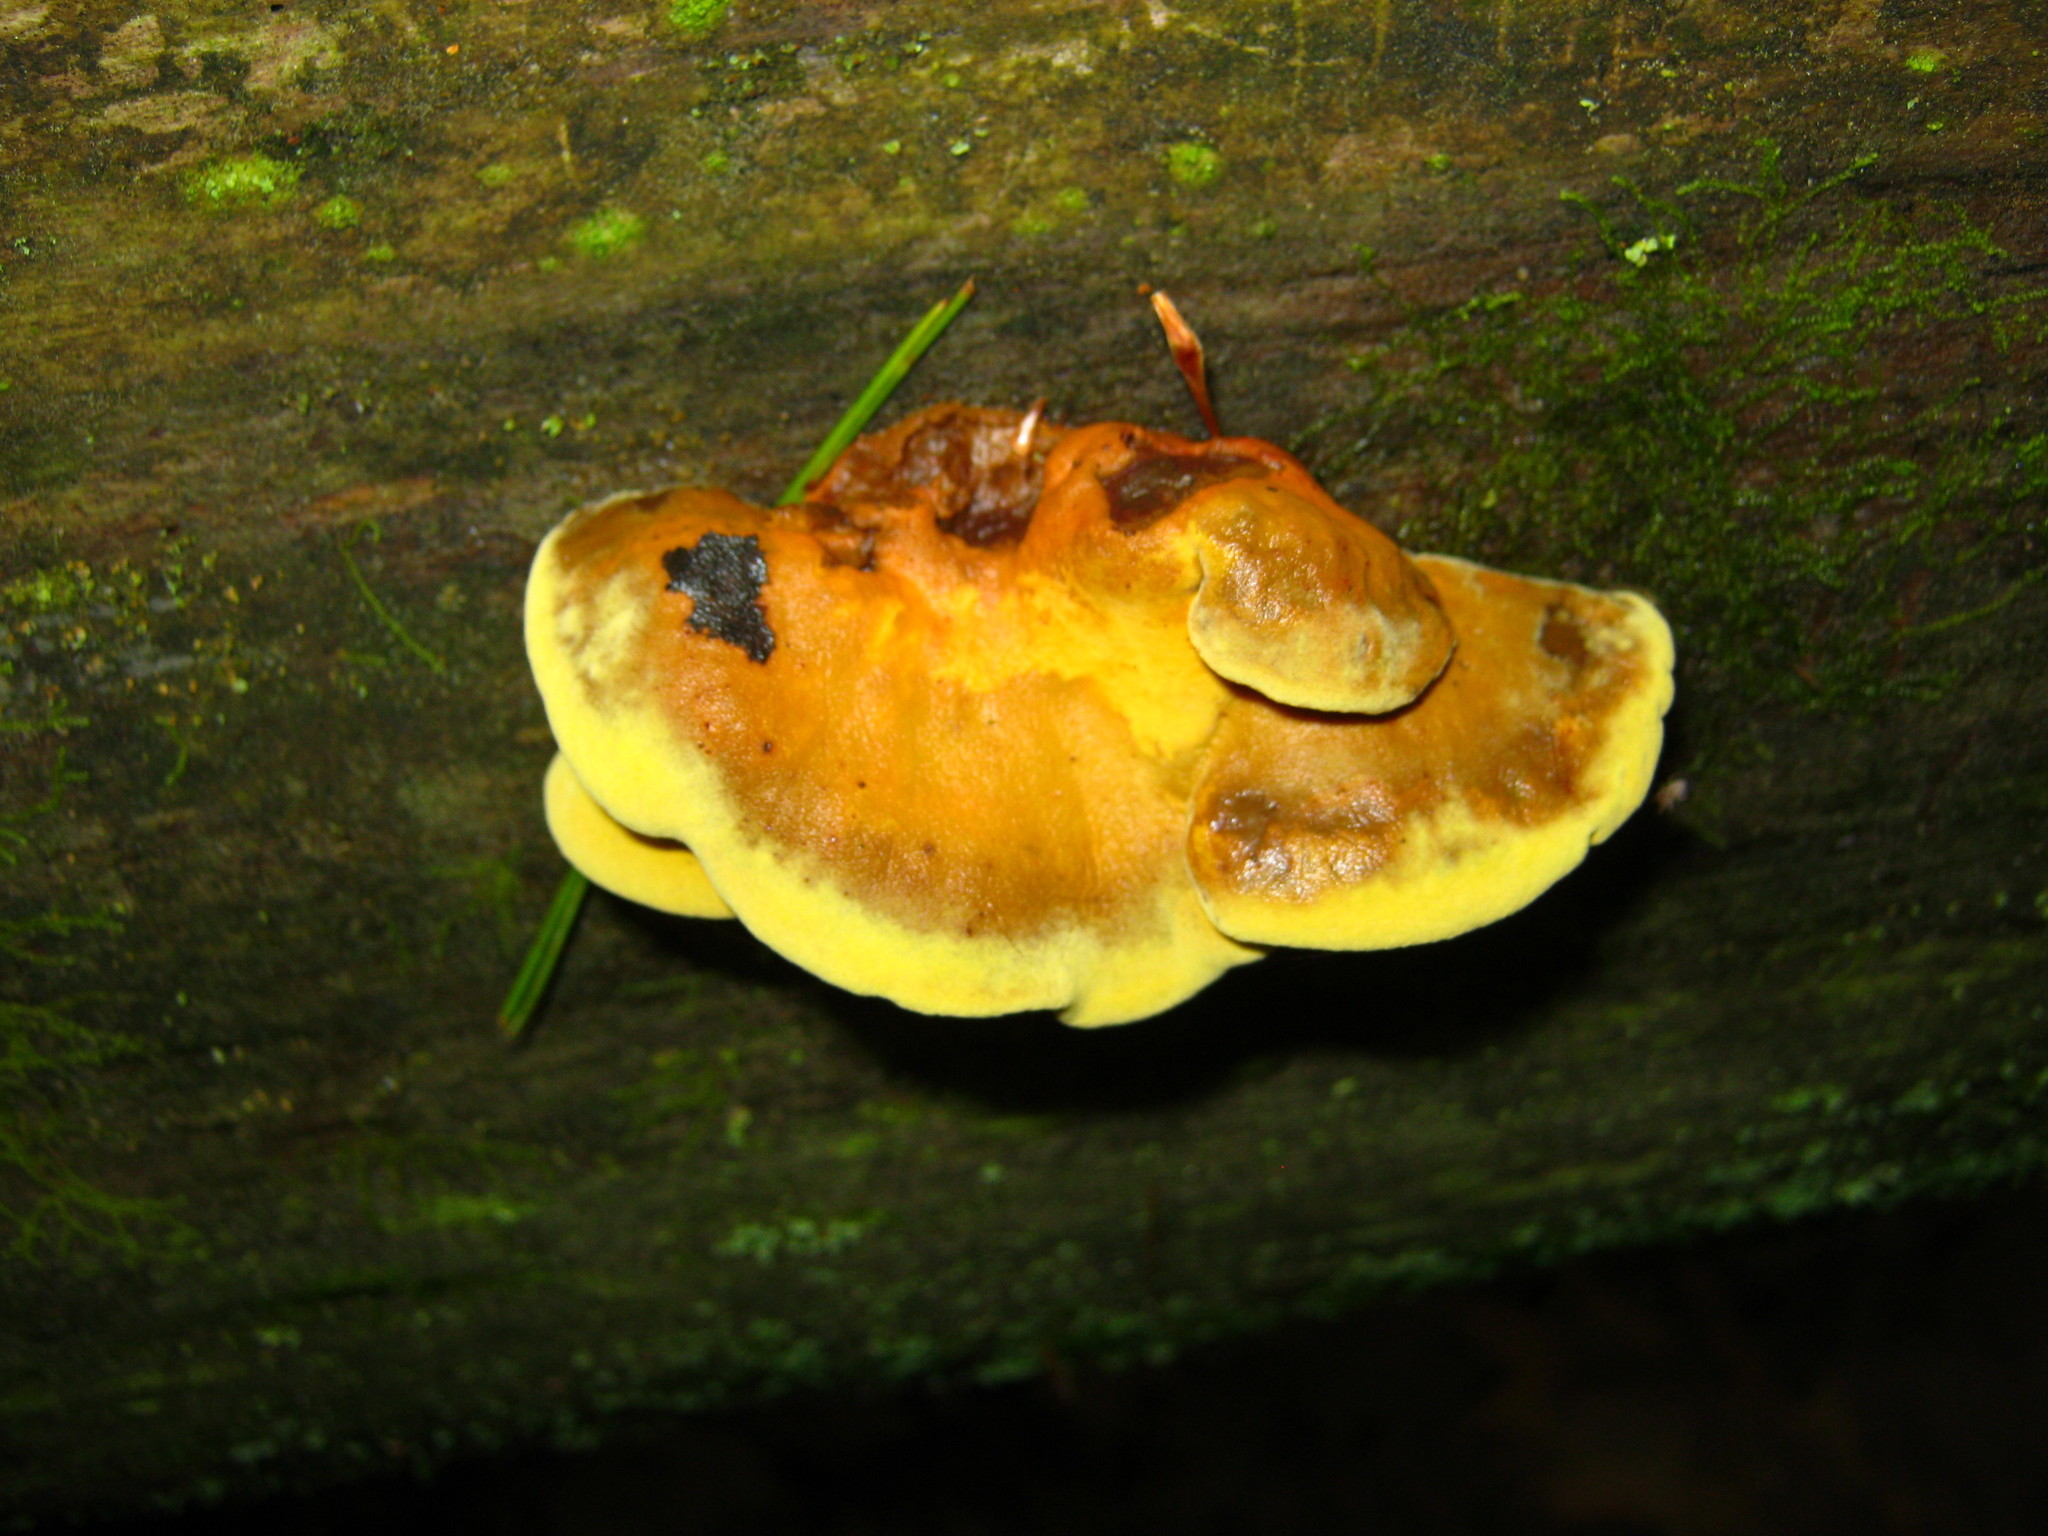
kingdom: Fungi
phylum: Basidiomycota
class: Agaricomycetes
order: Boletales
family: Paxillaceae
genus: Meiorganum
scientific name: Meiorganum curtisii
